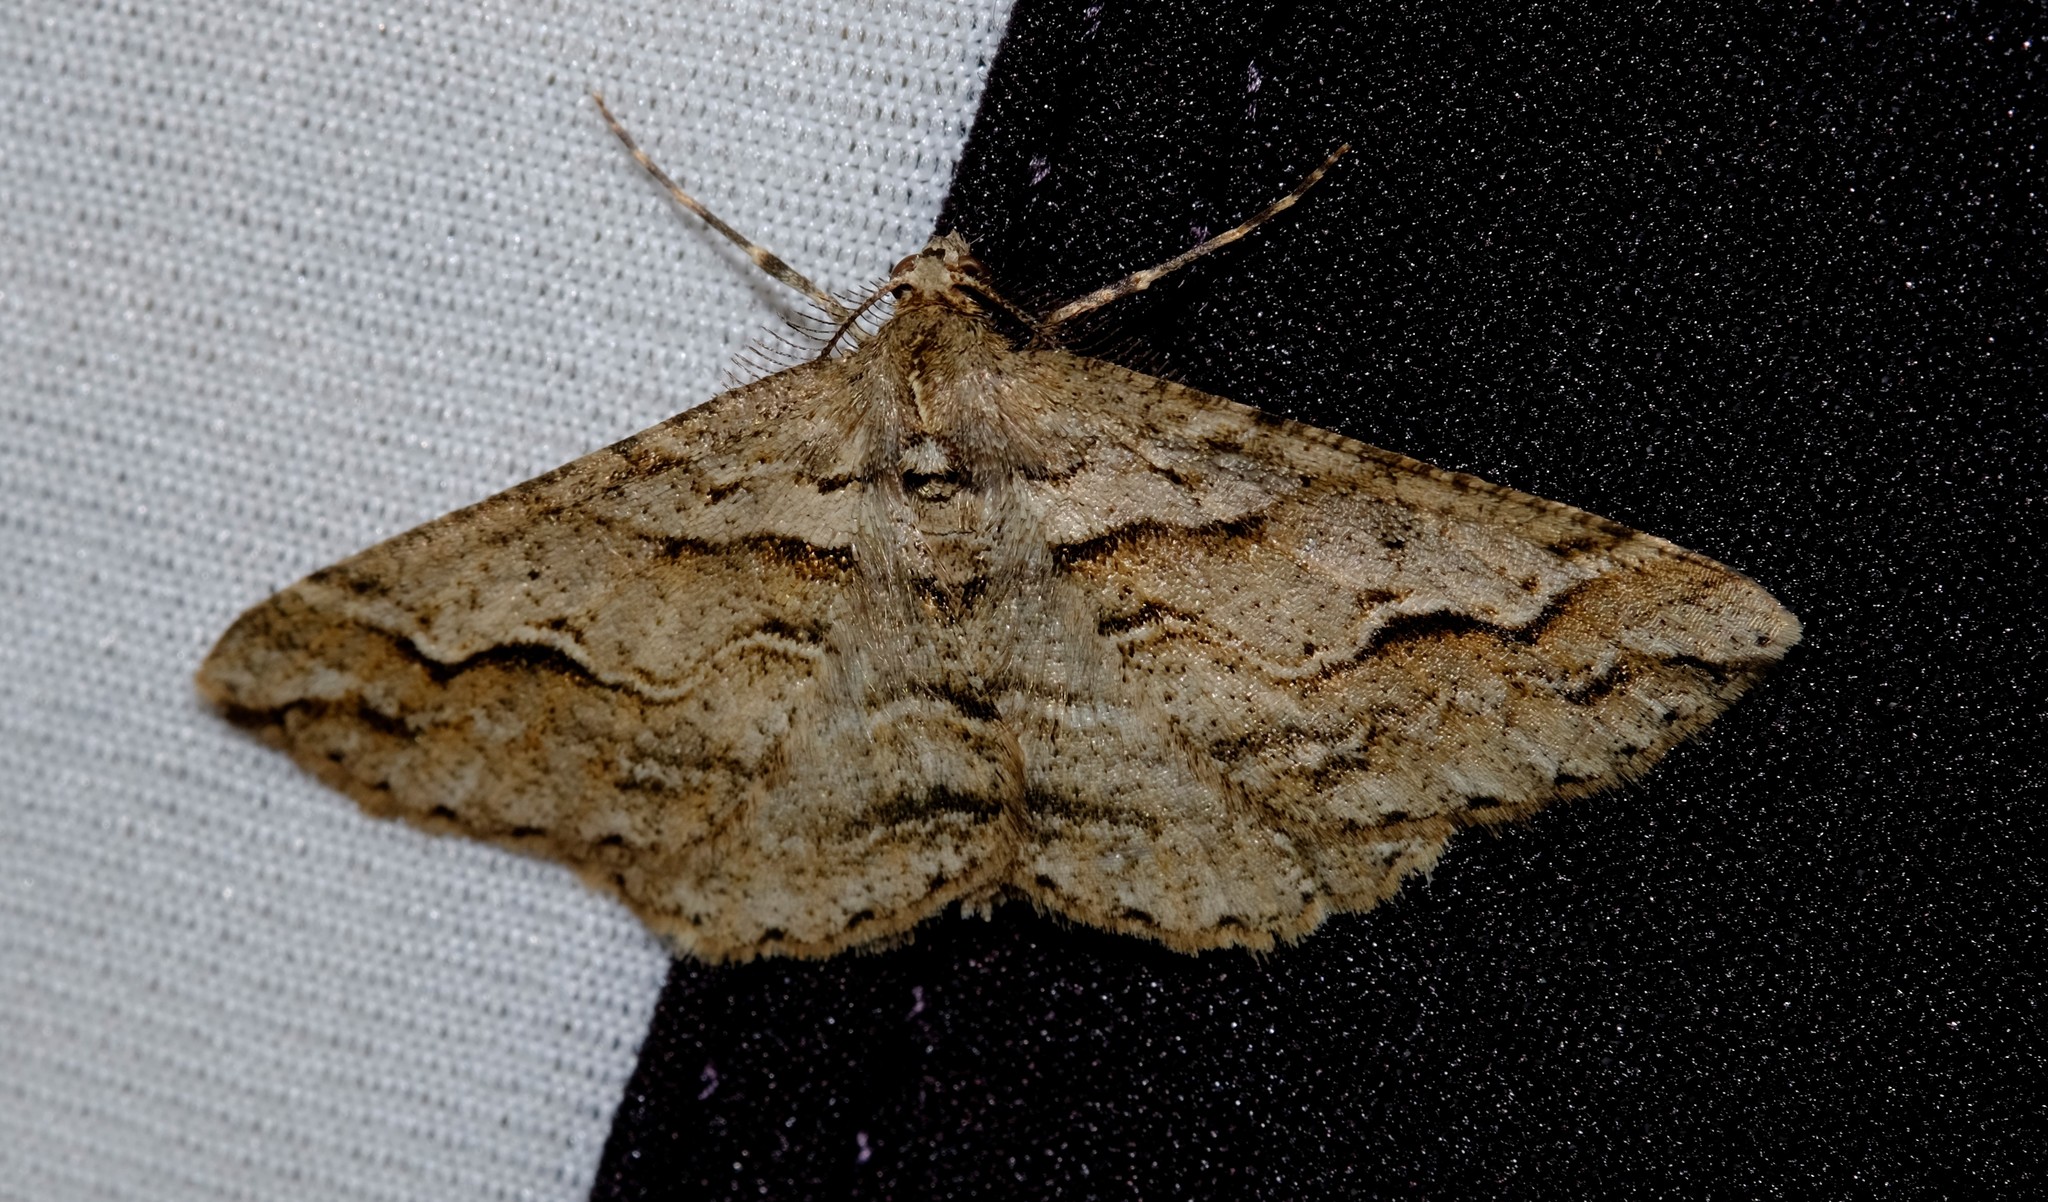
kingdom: Animalia
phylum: Arthropoda
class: Insecta
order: Lepidoptera
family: Geometridae
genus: Syneora
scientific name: Syneora fractata
